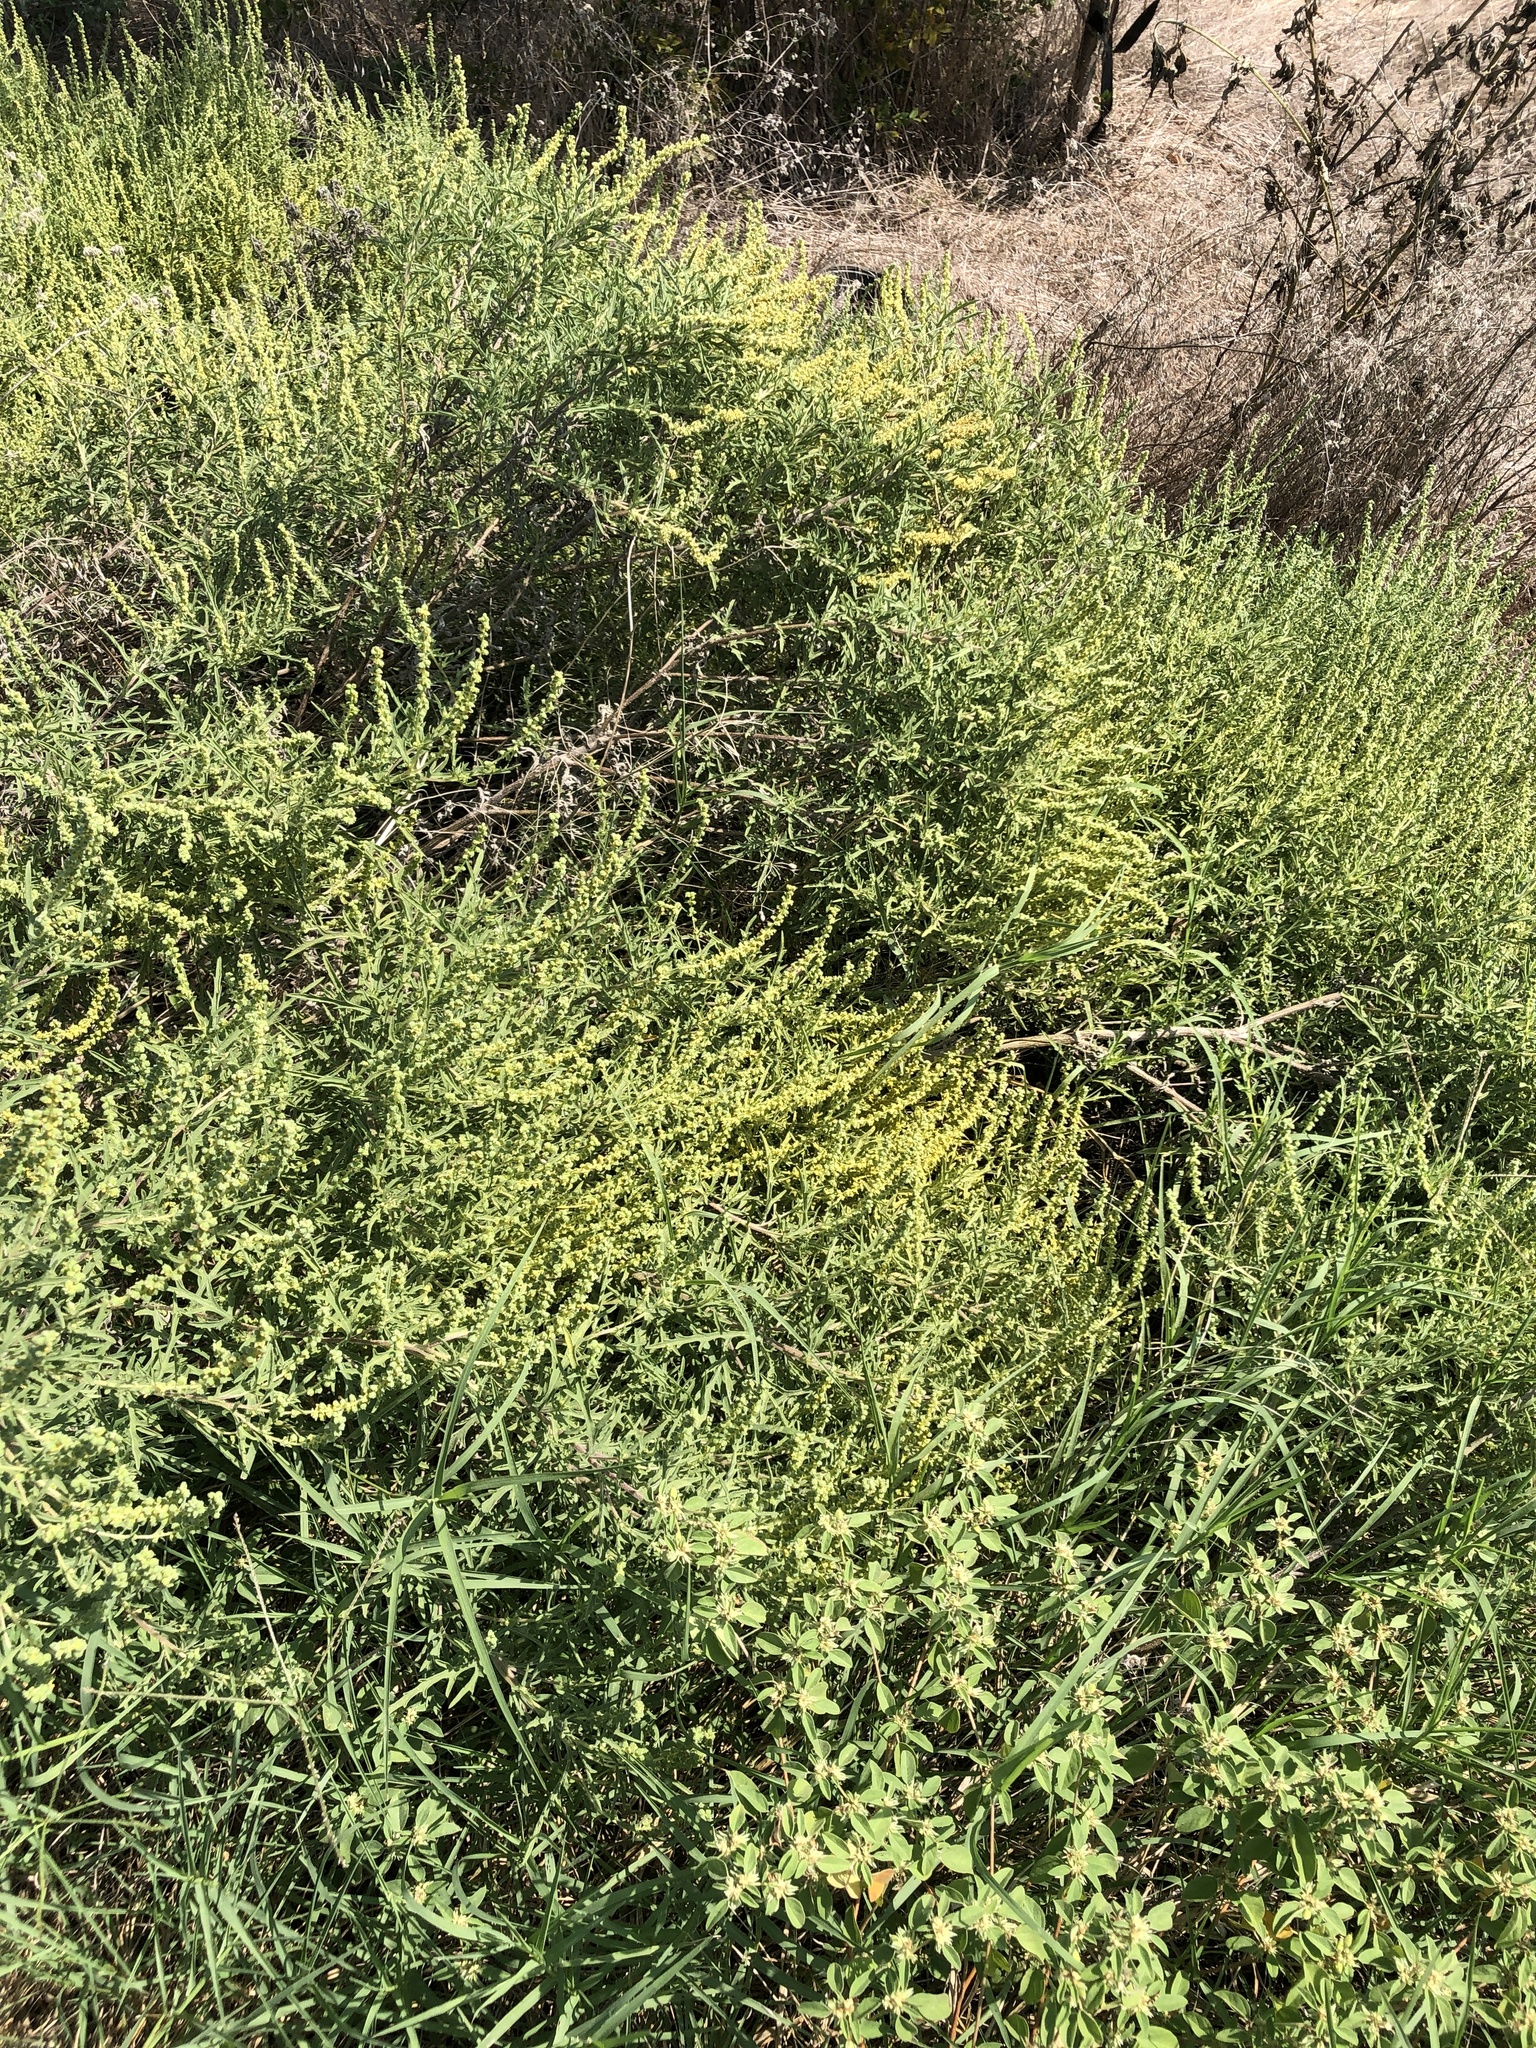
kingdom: Plantae
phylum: Tracheophyta
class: Magnoliopsida
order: Asterales
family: Asteraceae
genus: Ambrosia
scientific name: Ambrosia psilostachya
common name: Perennial ragweed
